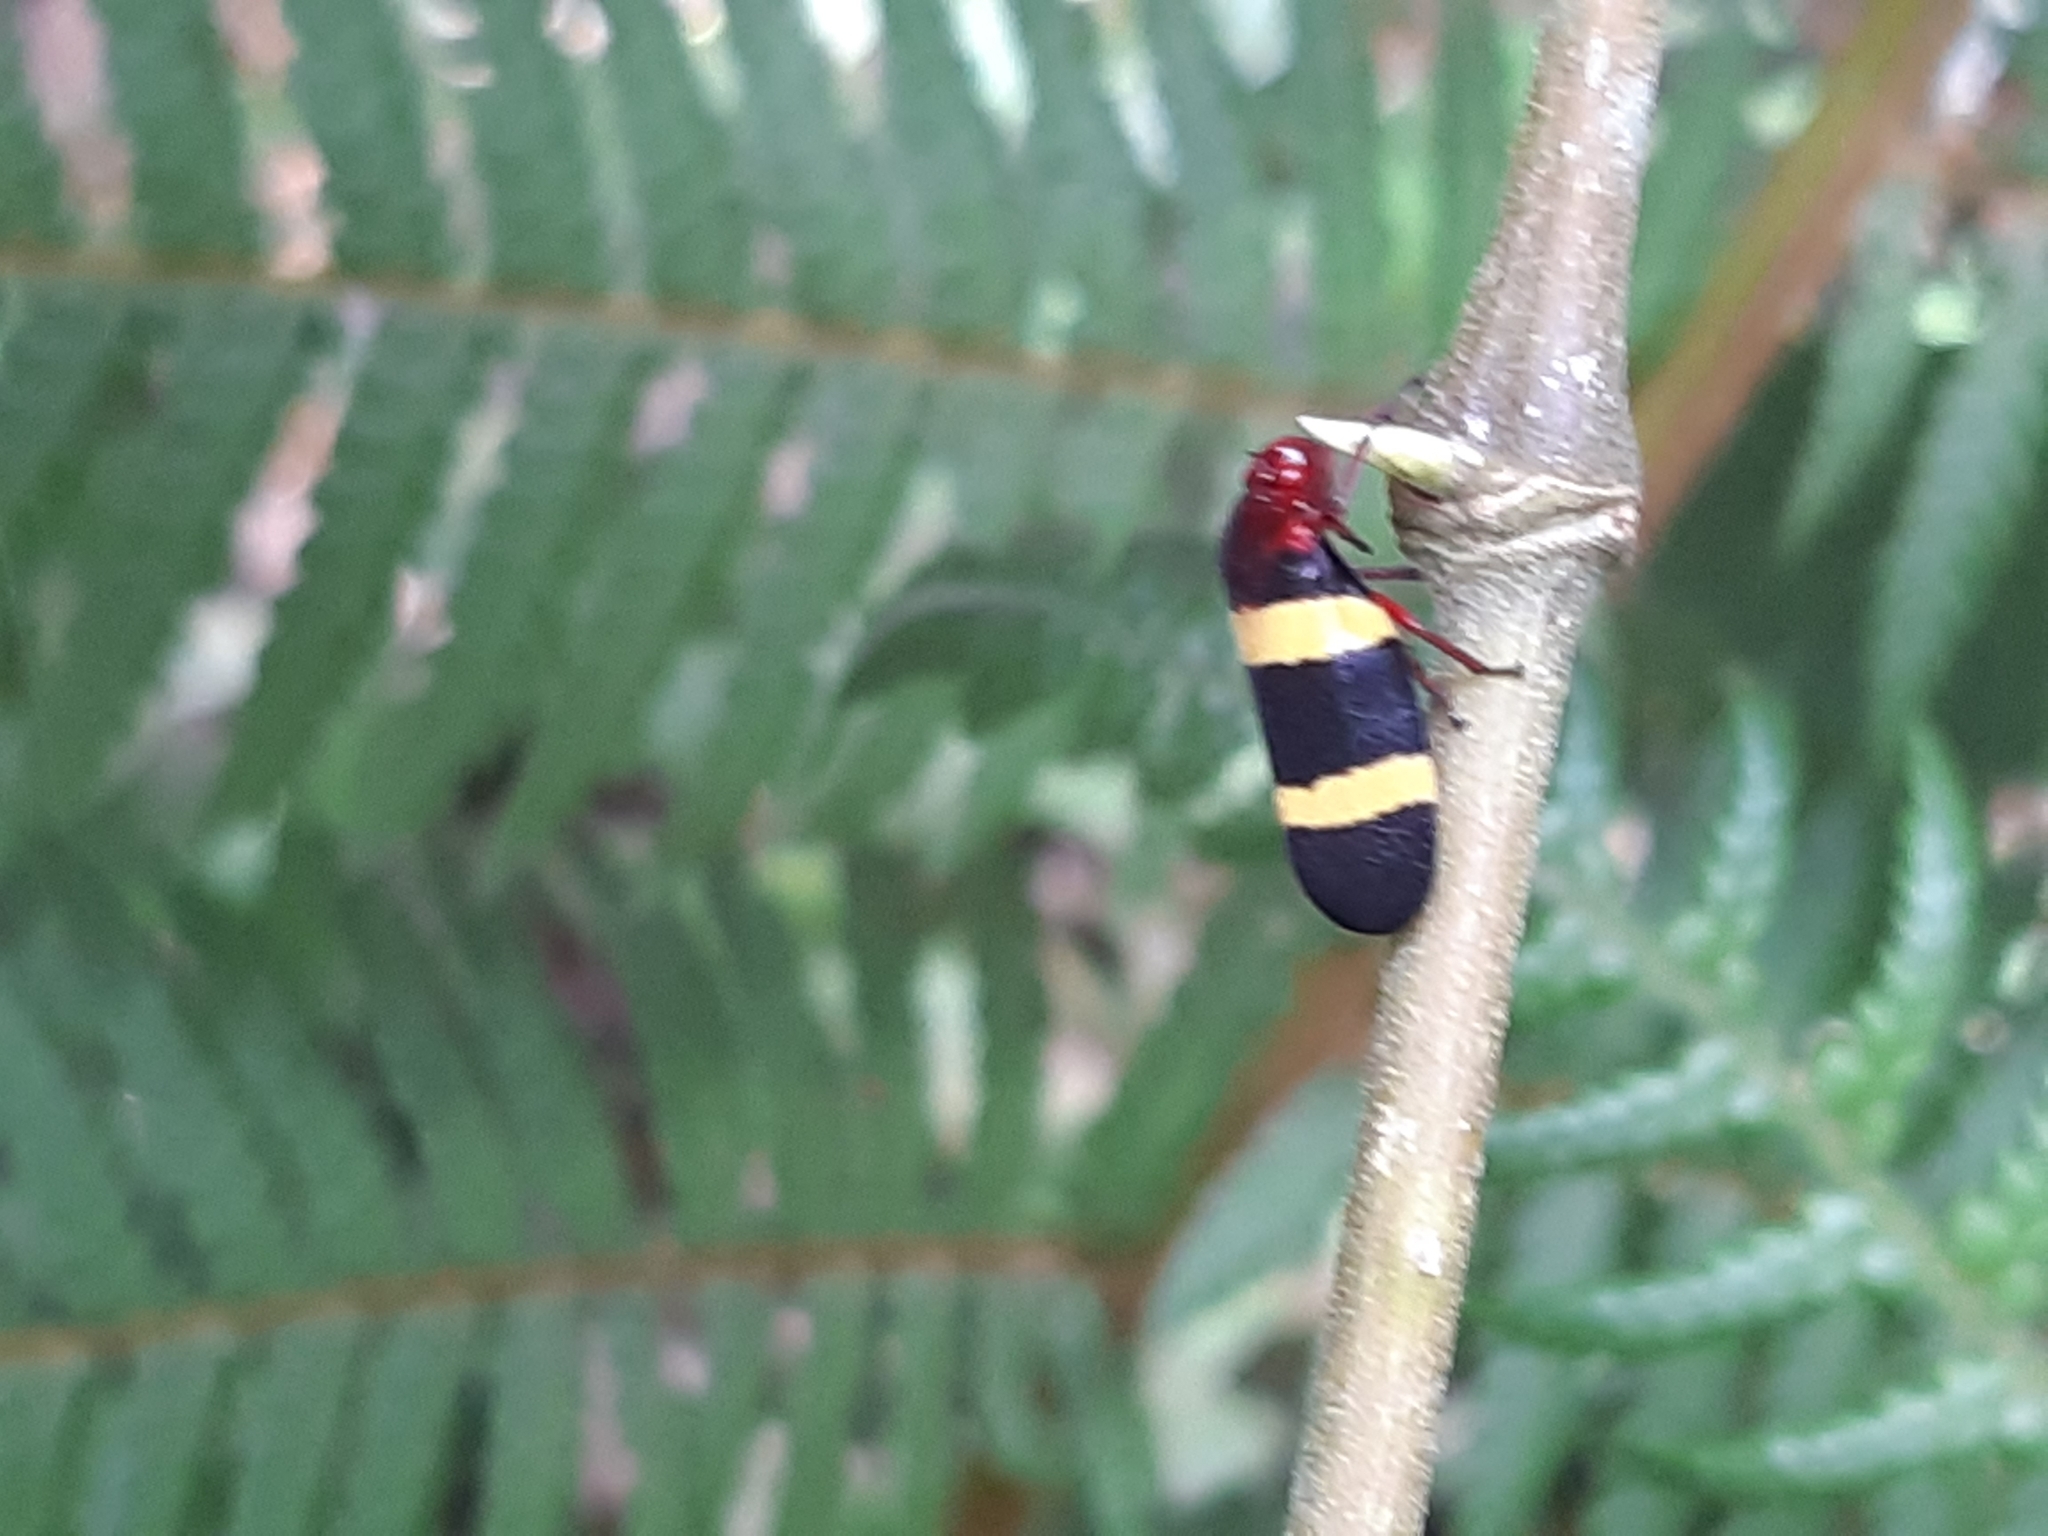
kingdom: Animalia
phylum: Arthropoda
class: Insecta
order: Hemiptera
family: Cercopidae
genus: Sphenorhina
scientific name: Sphenorhina rubra
